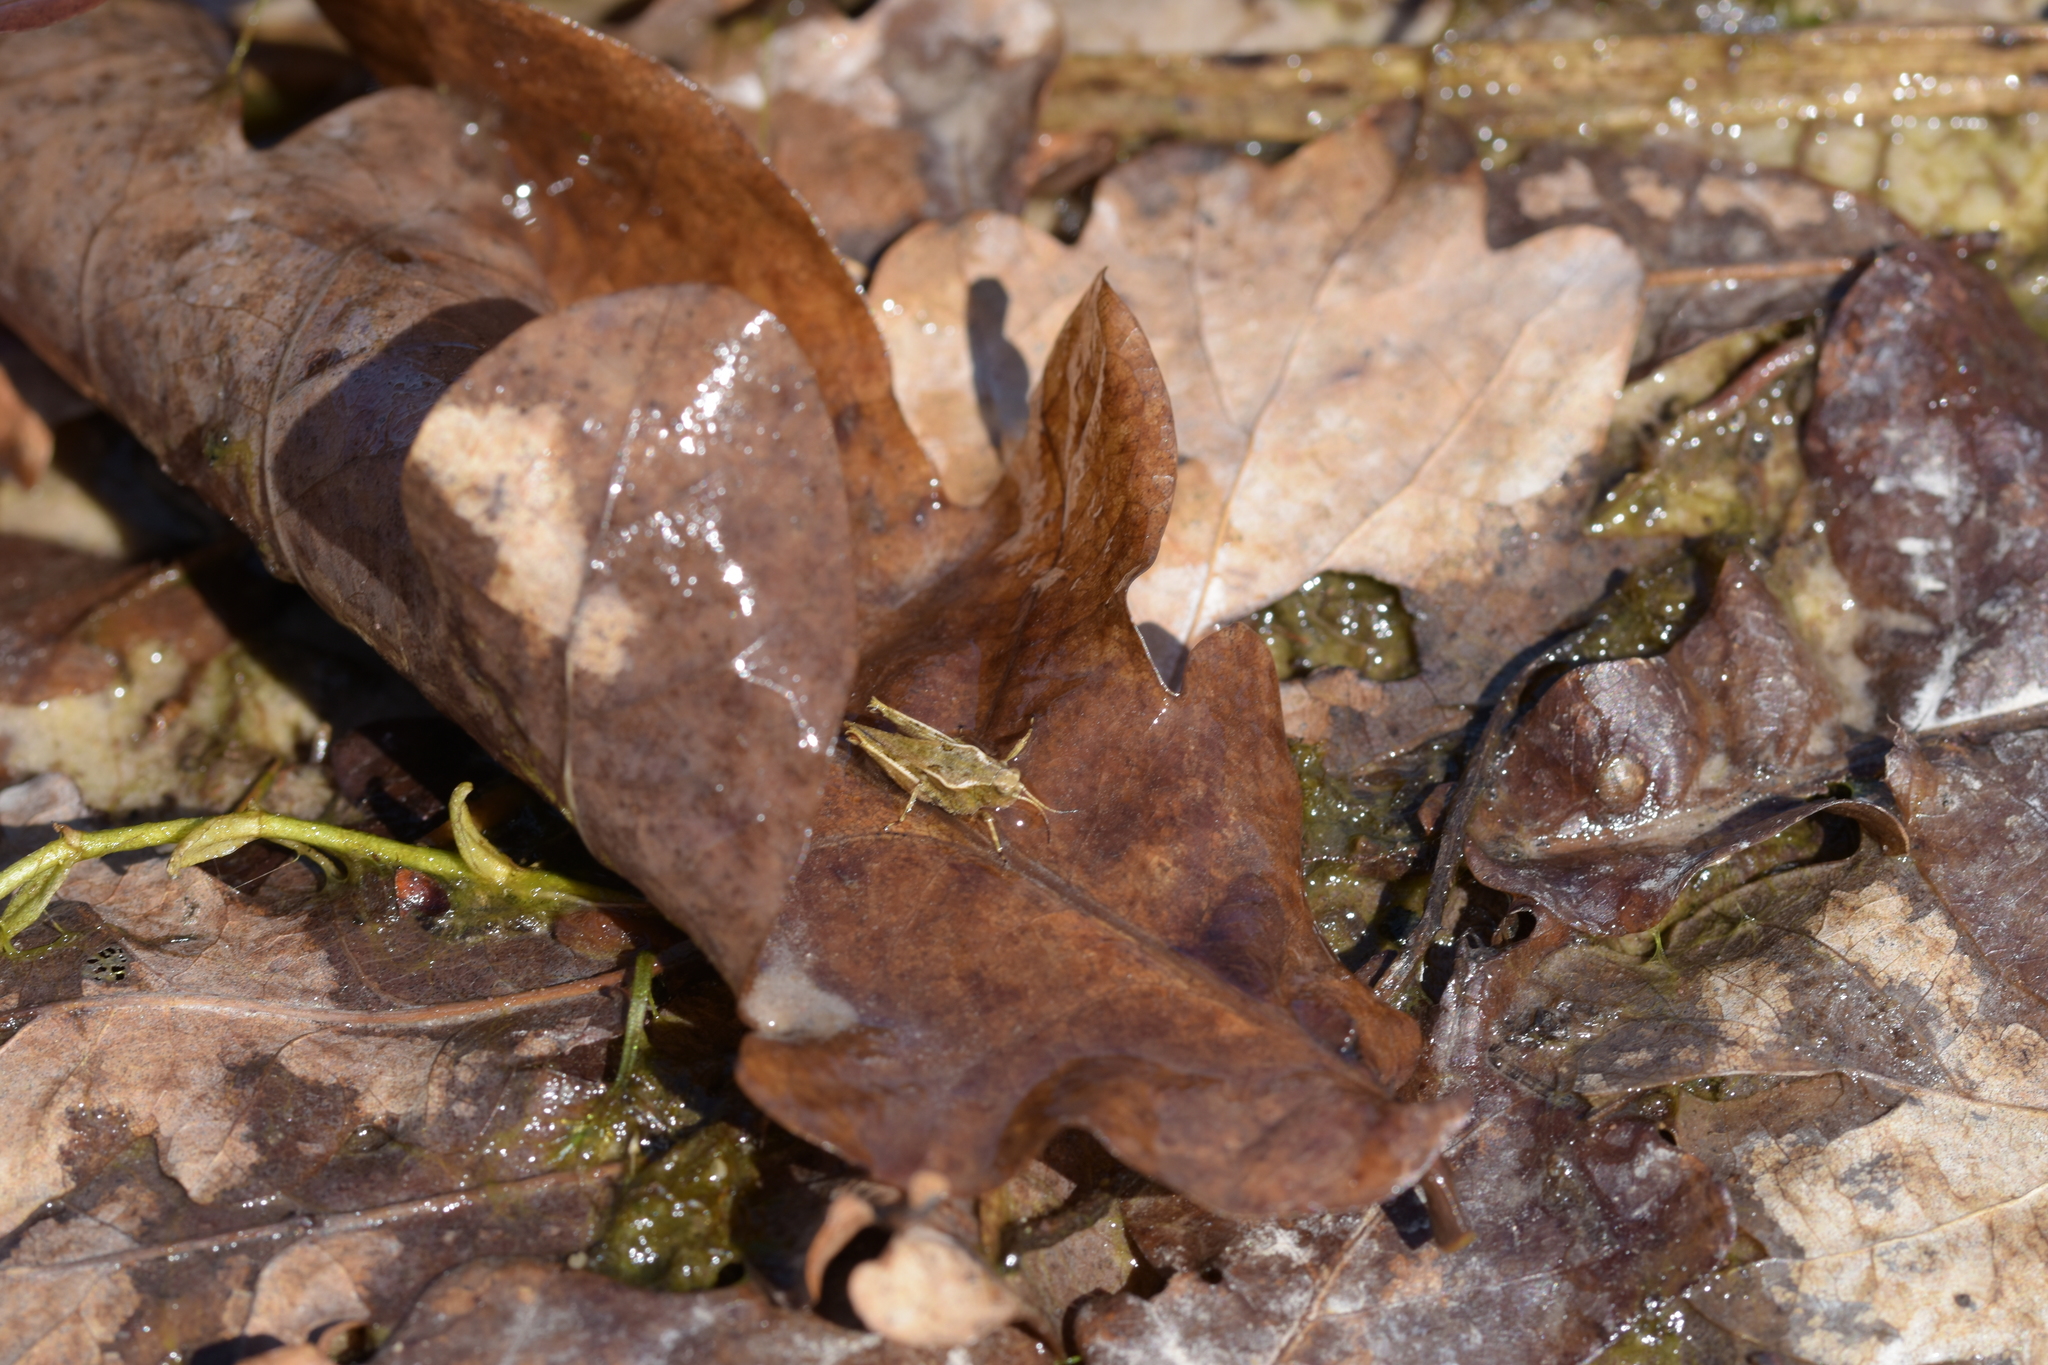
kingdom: Animalia
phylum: Arthropoda
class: Insecta
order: Orthoptera
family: Tetrigidae
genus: Tetrix
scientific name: Tetrix subulata
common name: Slender ground-hopper
